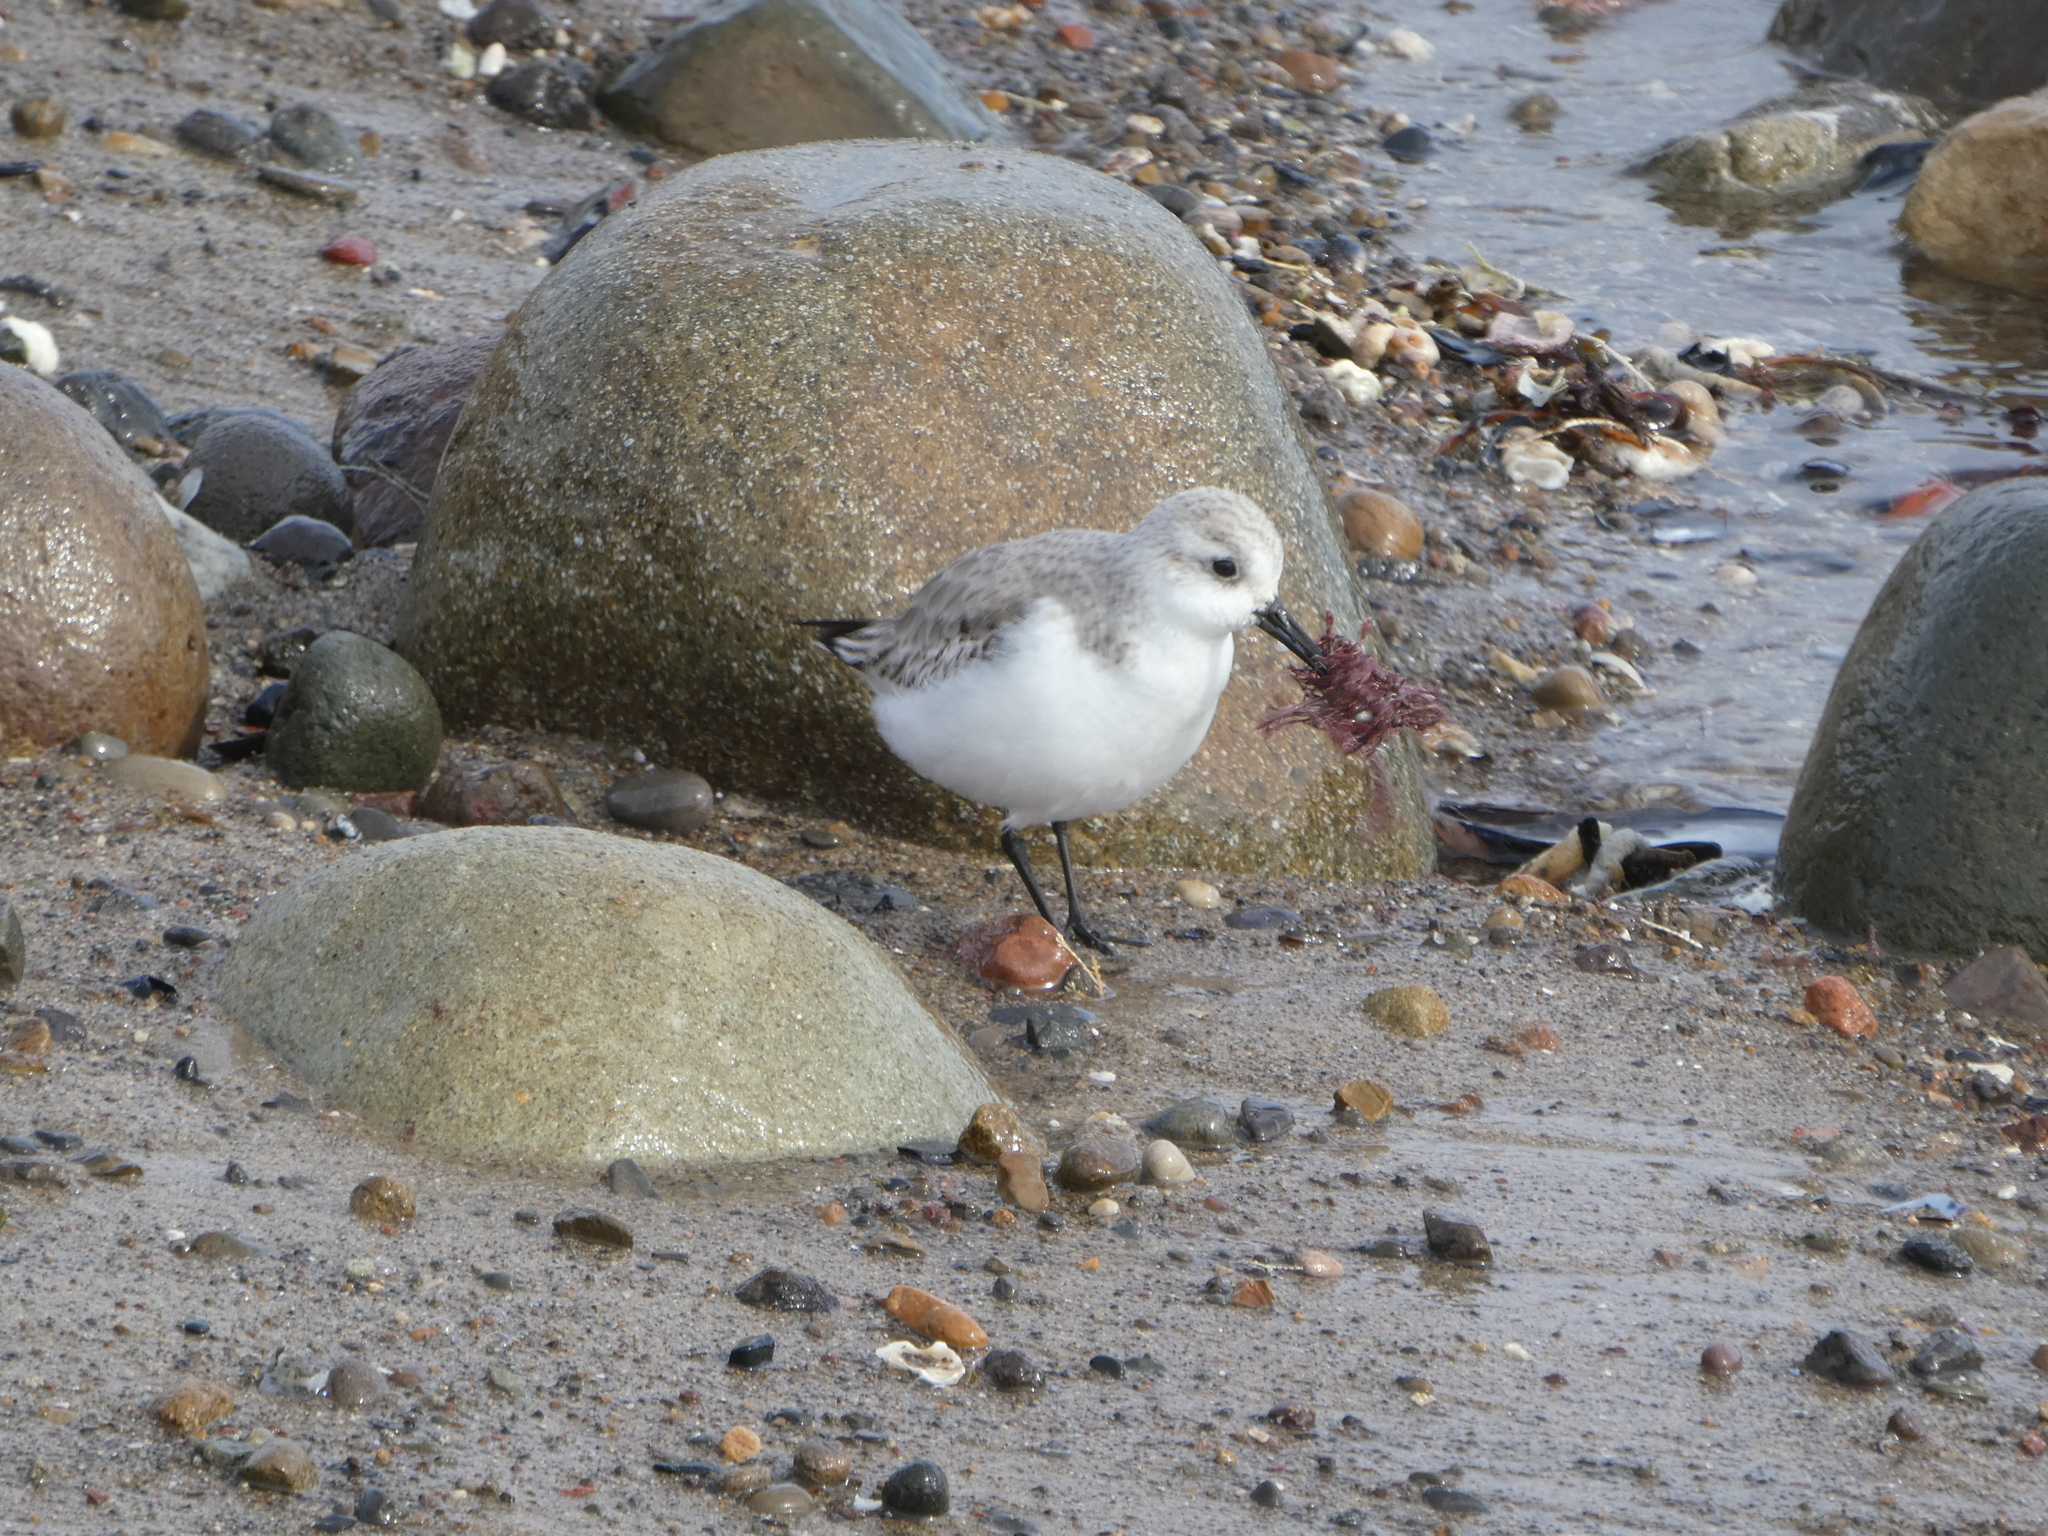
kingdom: Animalia
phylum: Chordata
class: Aves
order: Charadriiformes
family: Scolopacidae
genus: Calidris
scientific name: Calidris alba
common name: Sanderling
